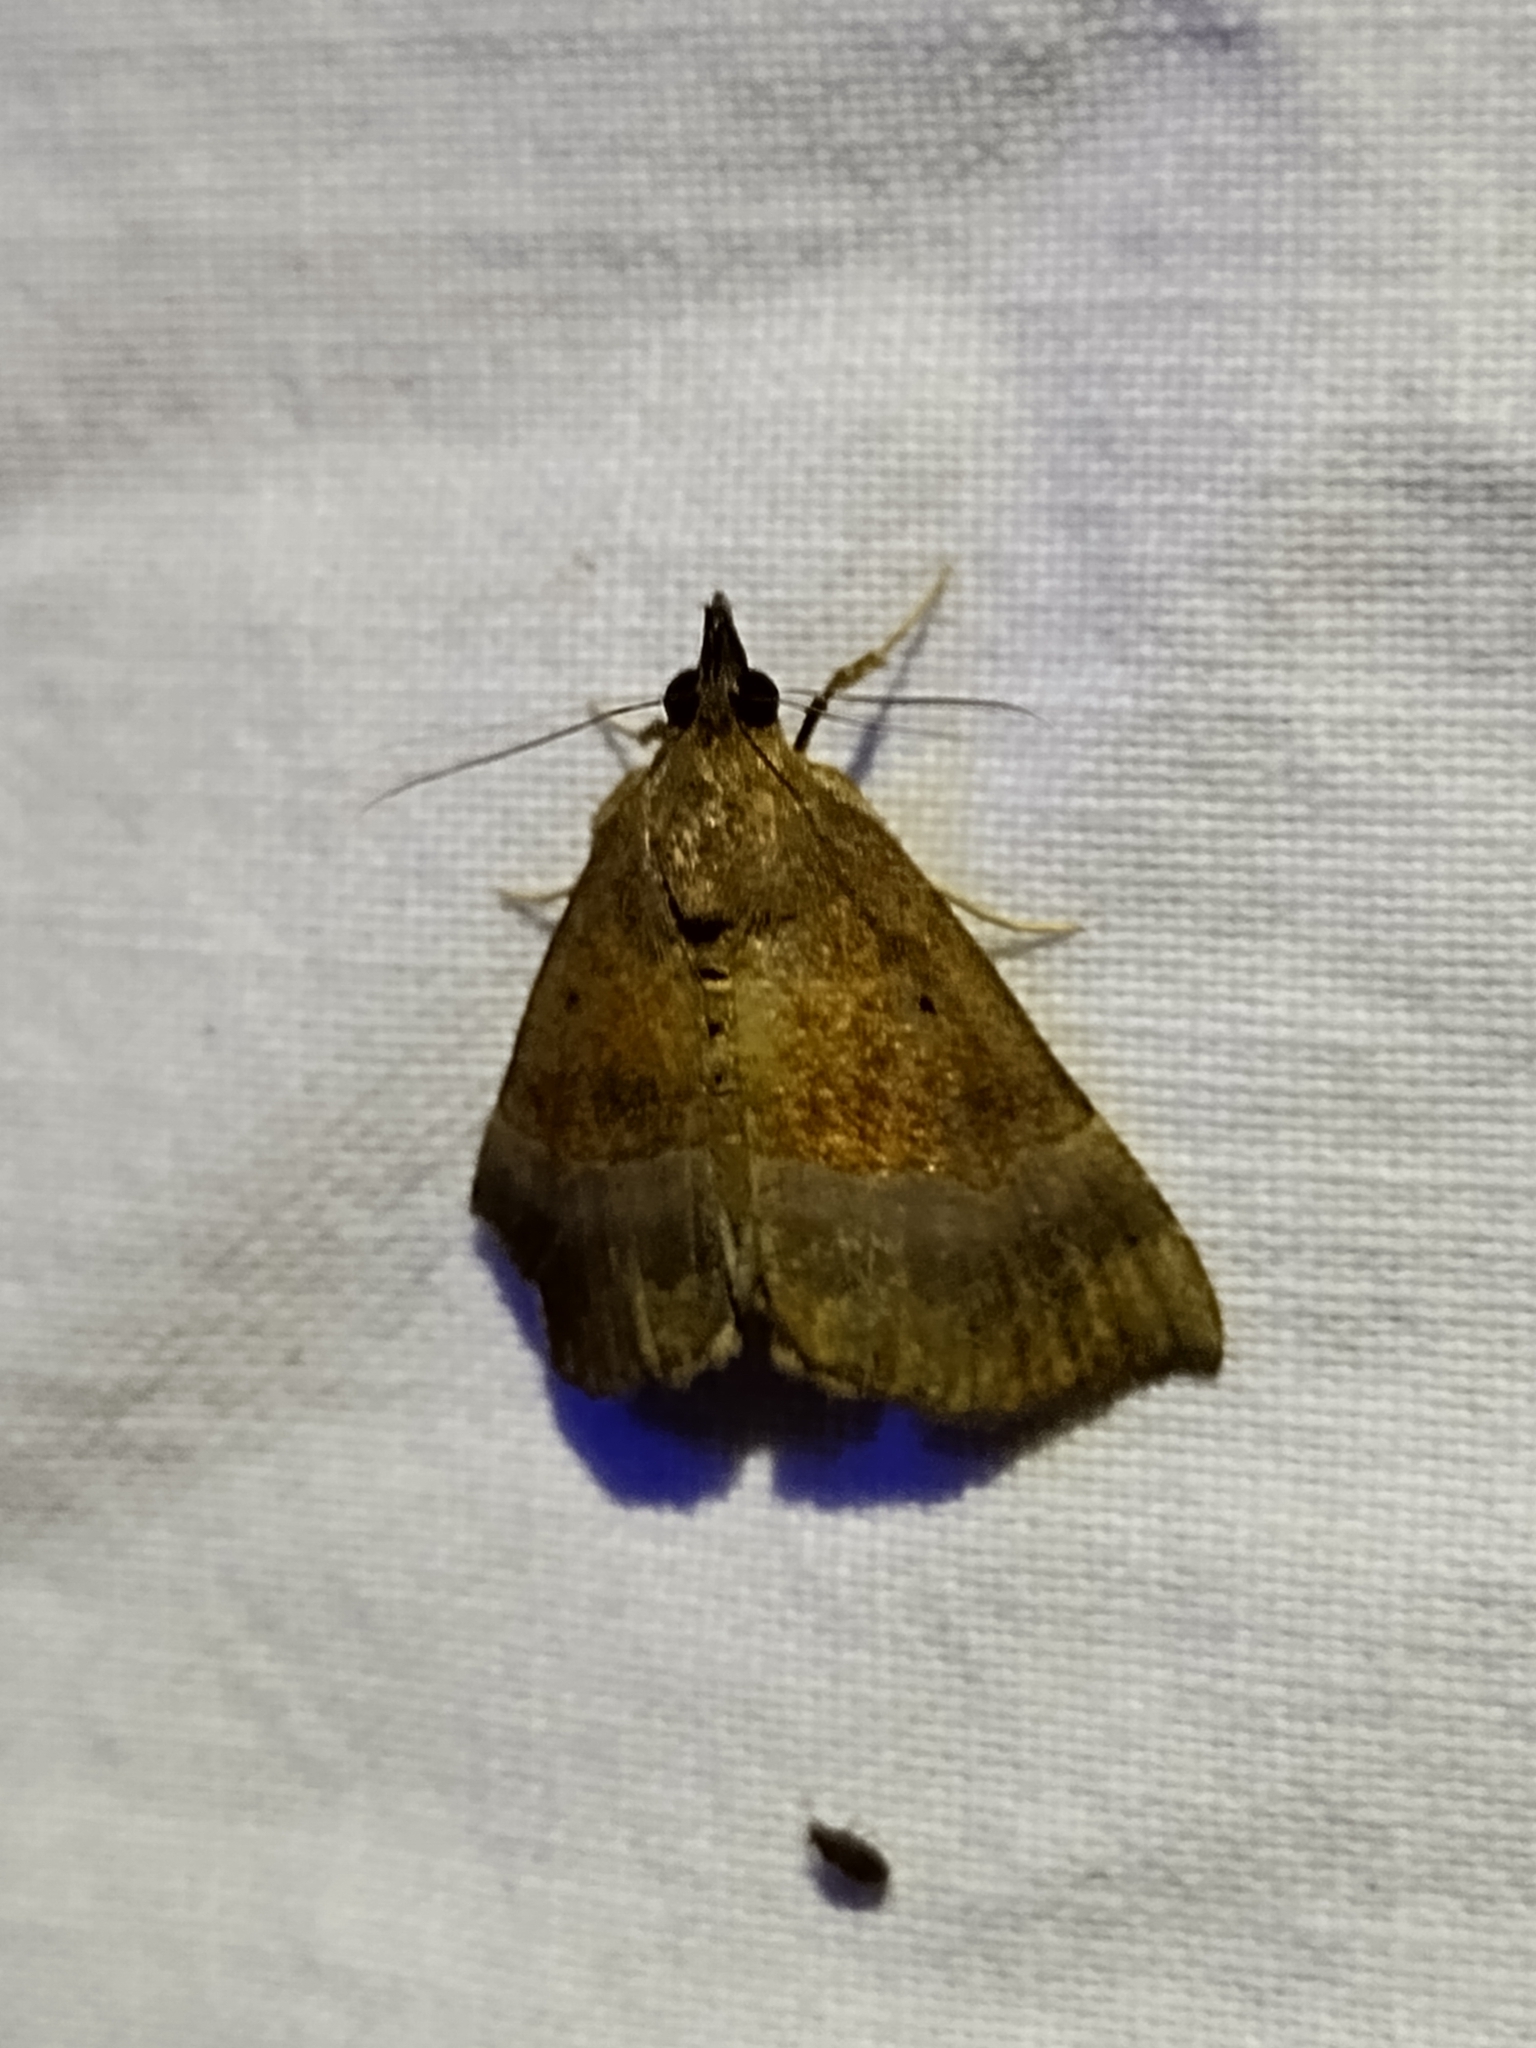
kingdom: Animalia
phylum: Arthropoda
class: Insecta
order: Lepidoptera
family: Erebidae
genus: Hypena
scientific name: Hypena madefactalis
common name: Gray-edged snout
